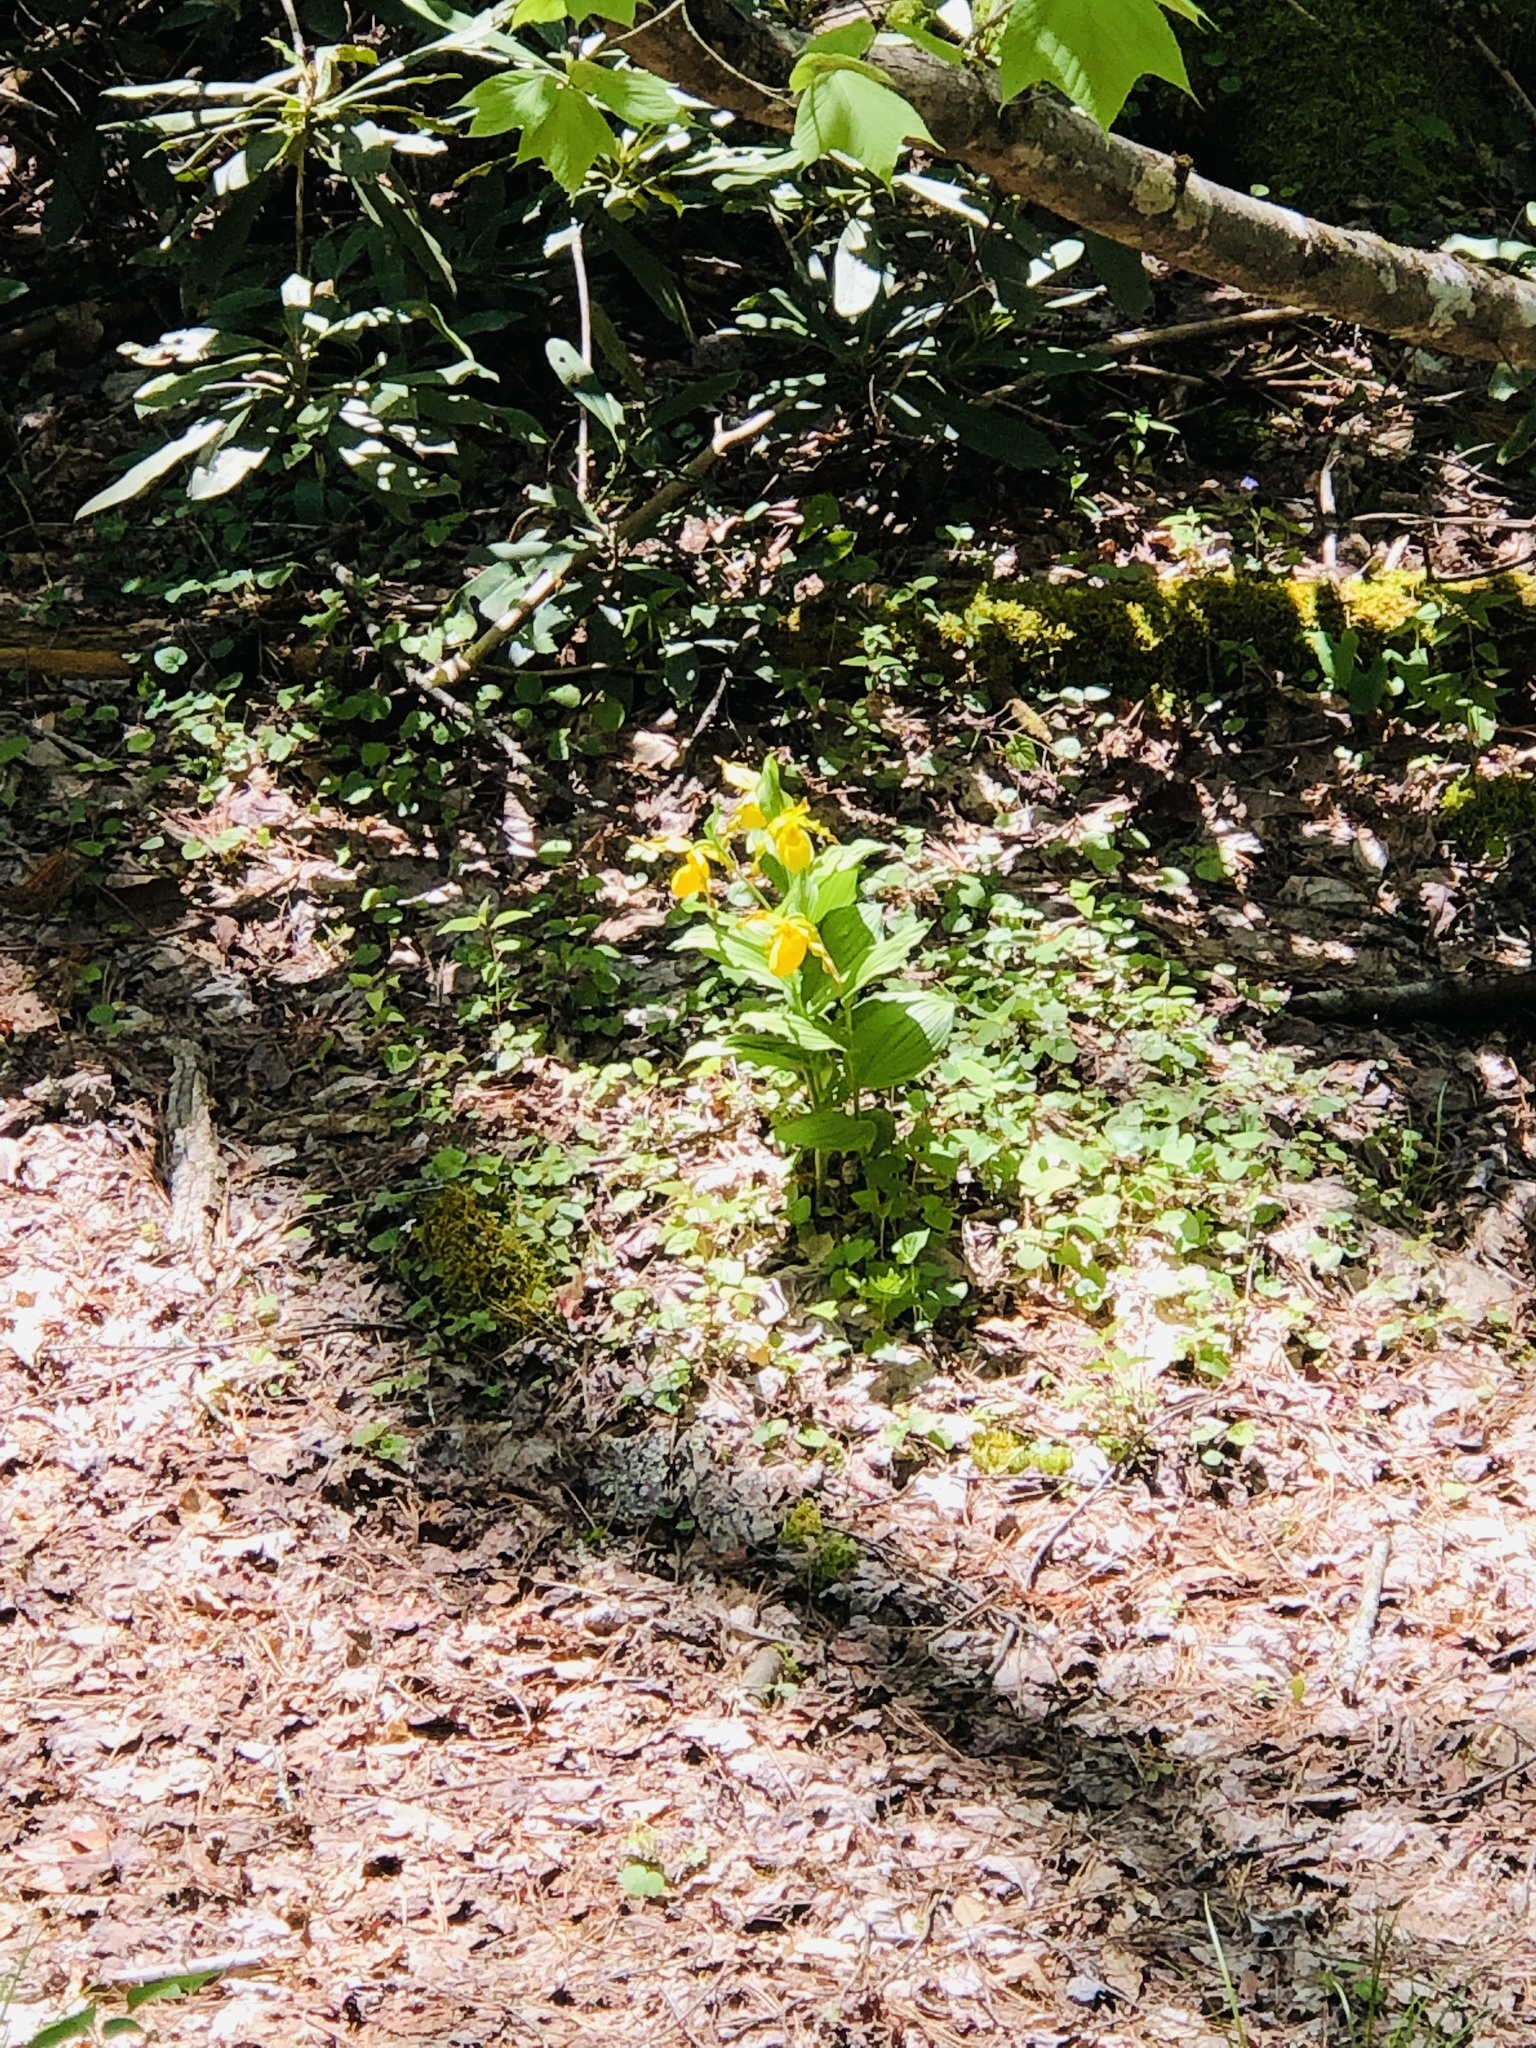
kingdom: Plantae
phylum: Tracheophyta
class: Liliopsida
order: Asparagales
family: Orchidaceae
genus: Cypripedium
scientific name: Cypripedium parviflorum
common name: American yellow lady's-slipper
